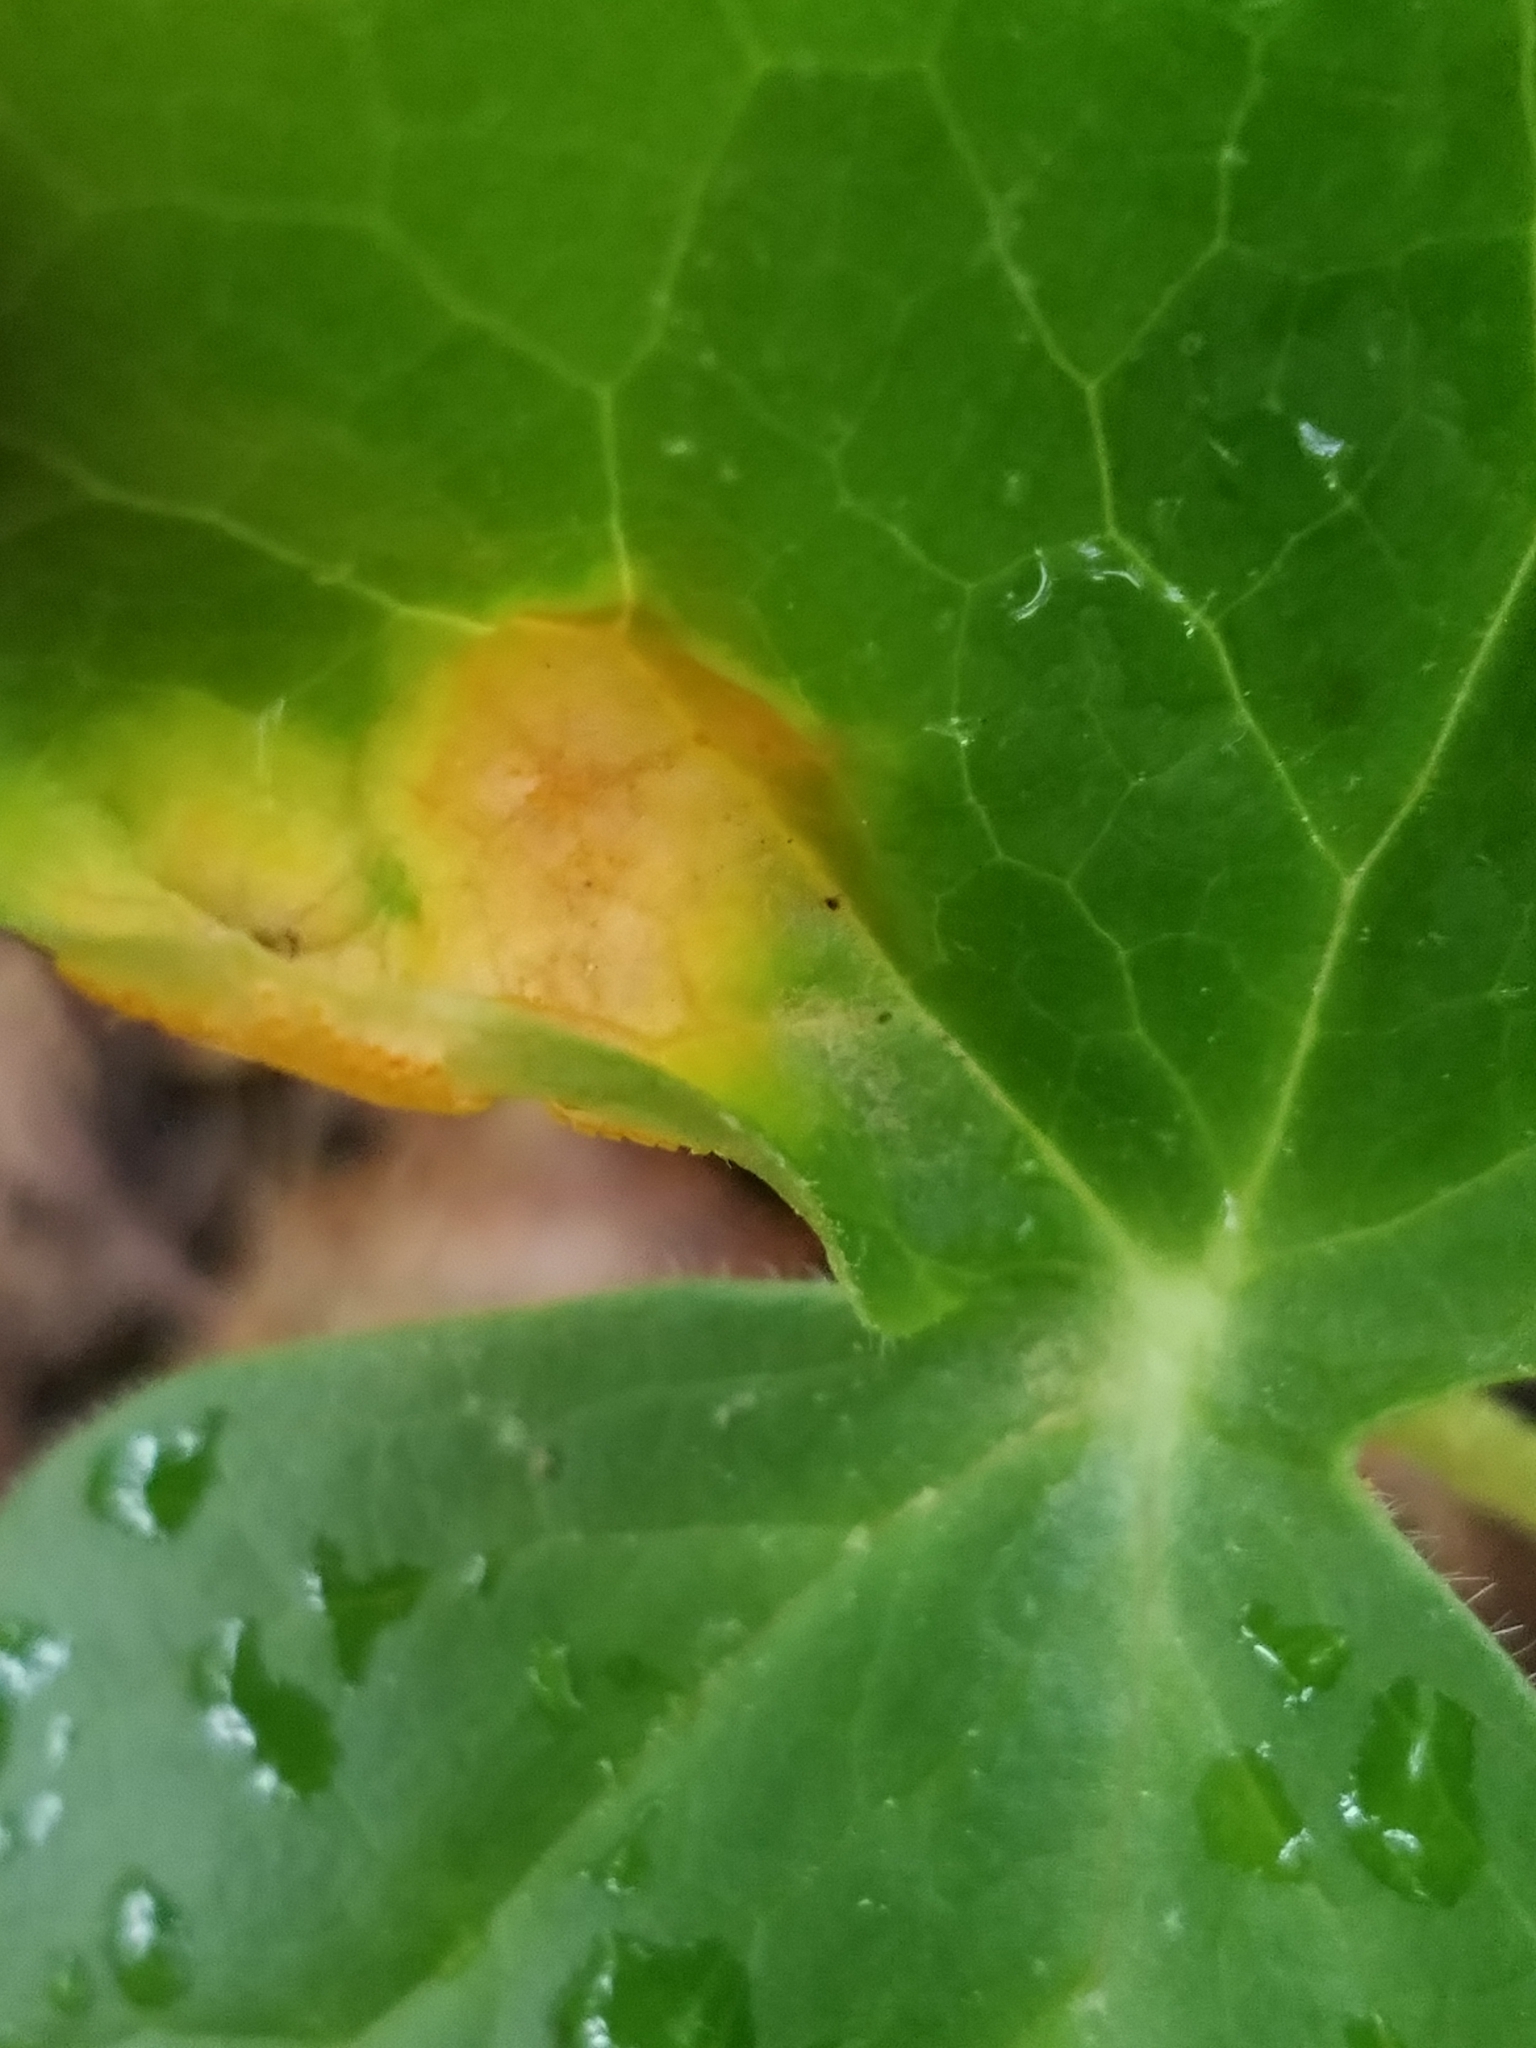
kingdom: Fungi
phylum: Basidiomycota
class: Pucciniomycetes
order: Pucciniales
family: Pucciniaceae
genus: Puccinia
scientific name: Puccinia podophylli
